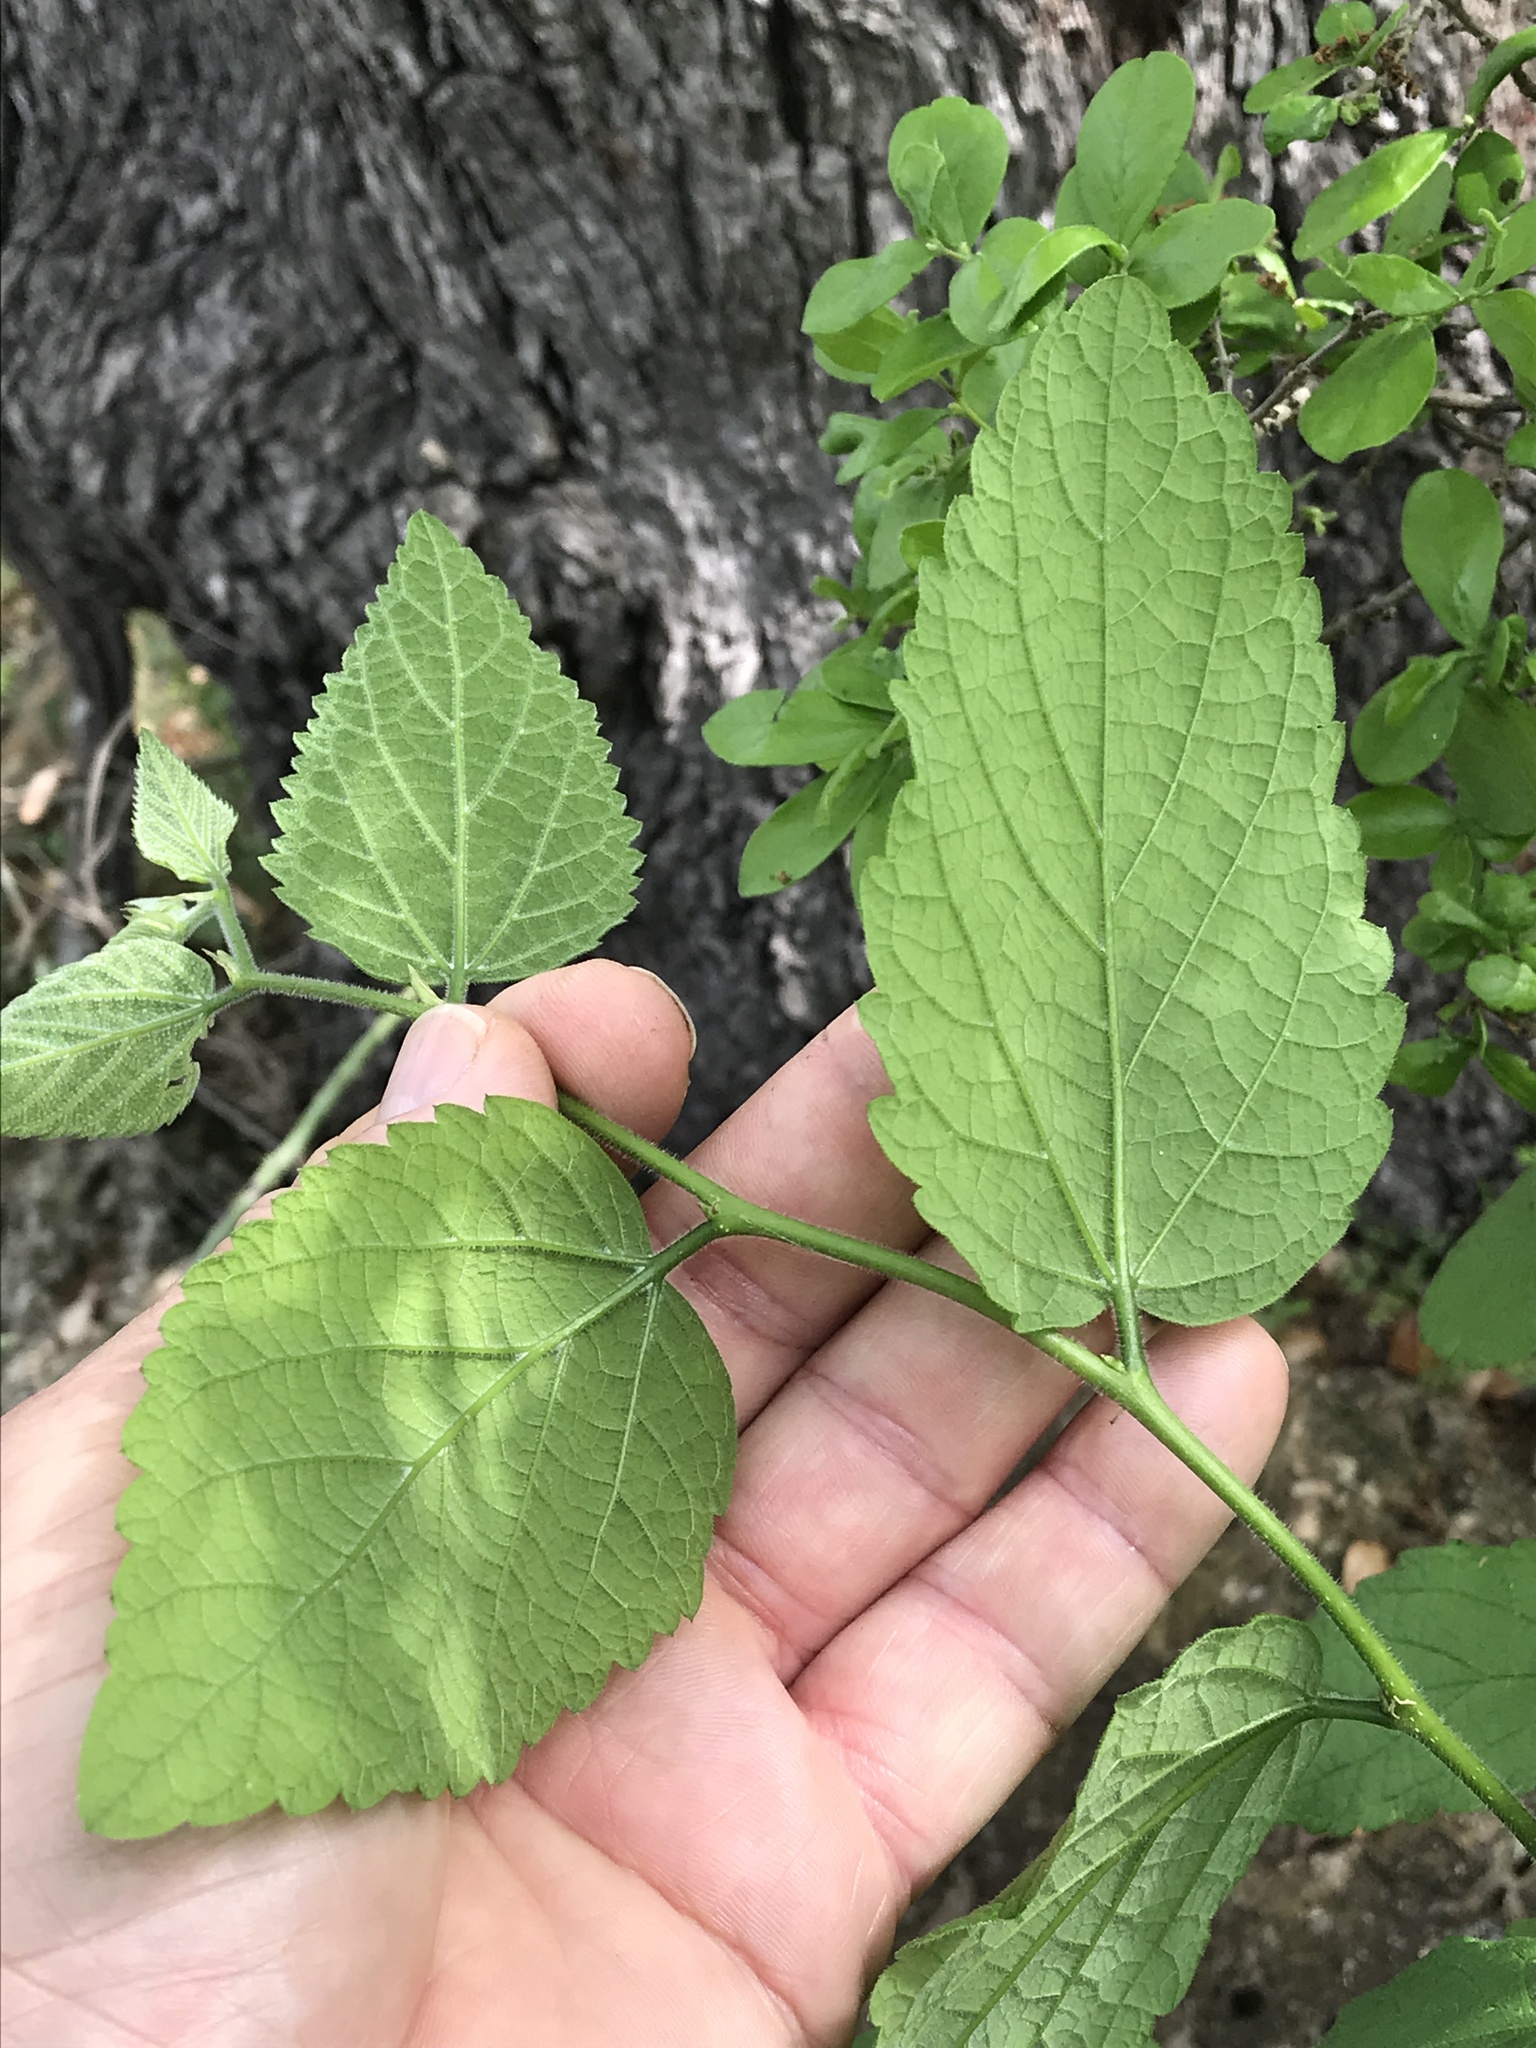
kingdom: Plantae
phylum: Tracheophyta
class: Magnoliopsida
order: Rosales
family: Cannabaceae
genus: Celtis
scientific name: Celtis reticulata
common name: Netleaf hackberry
